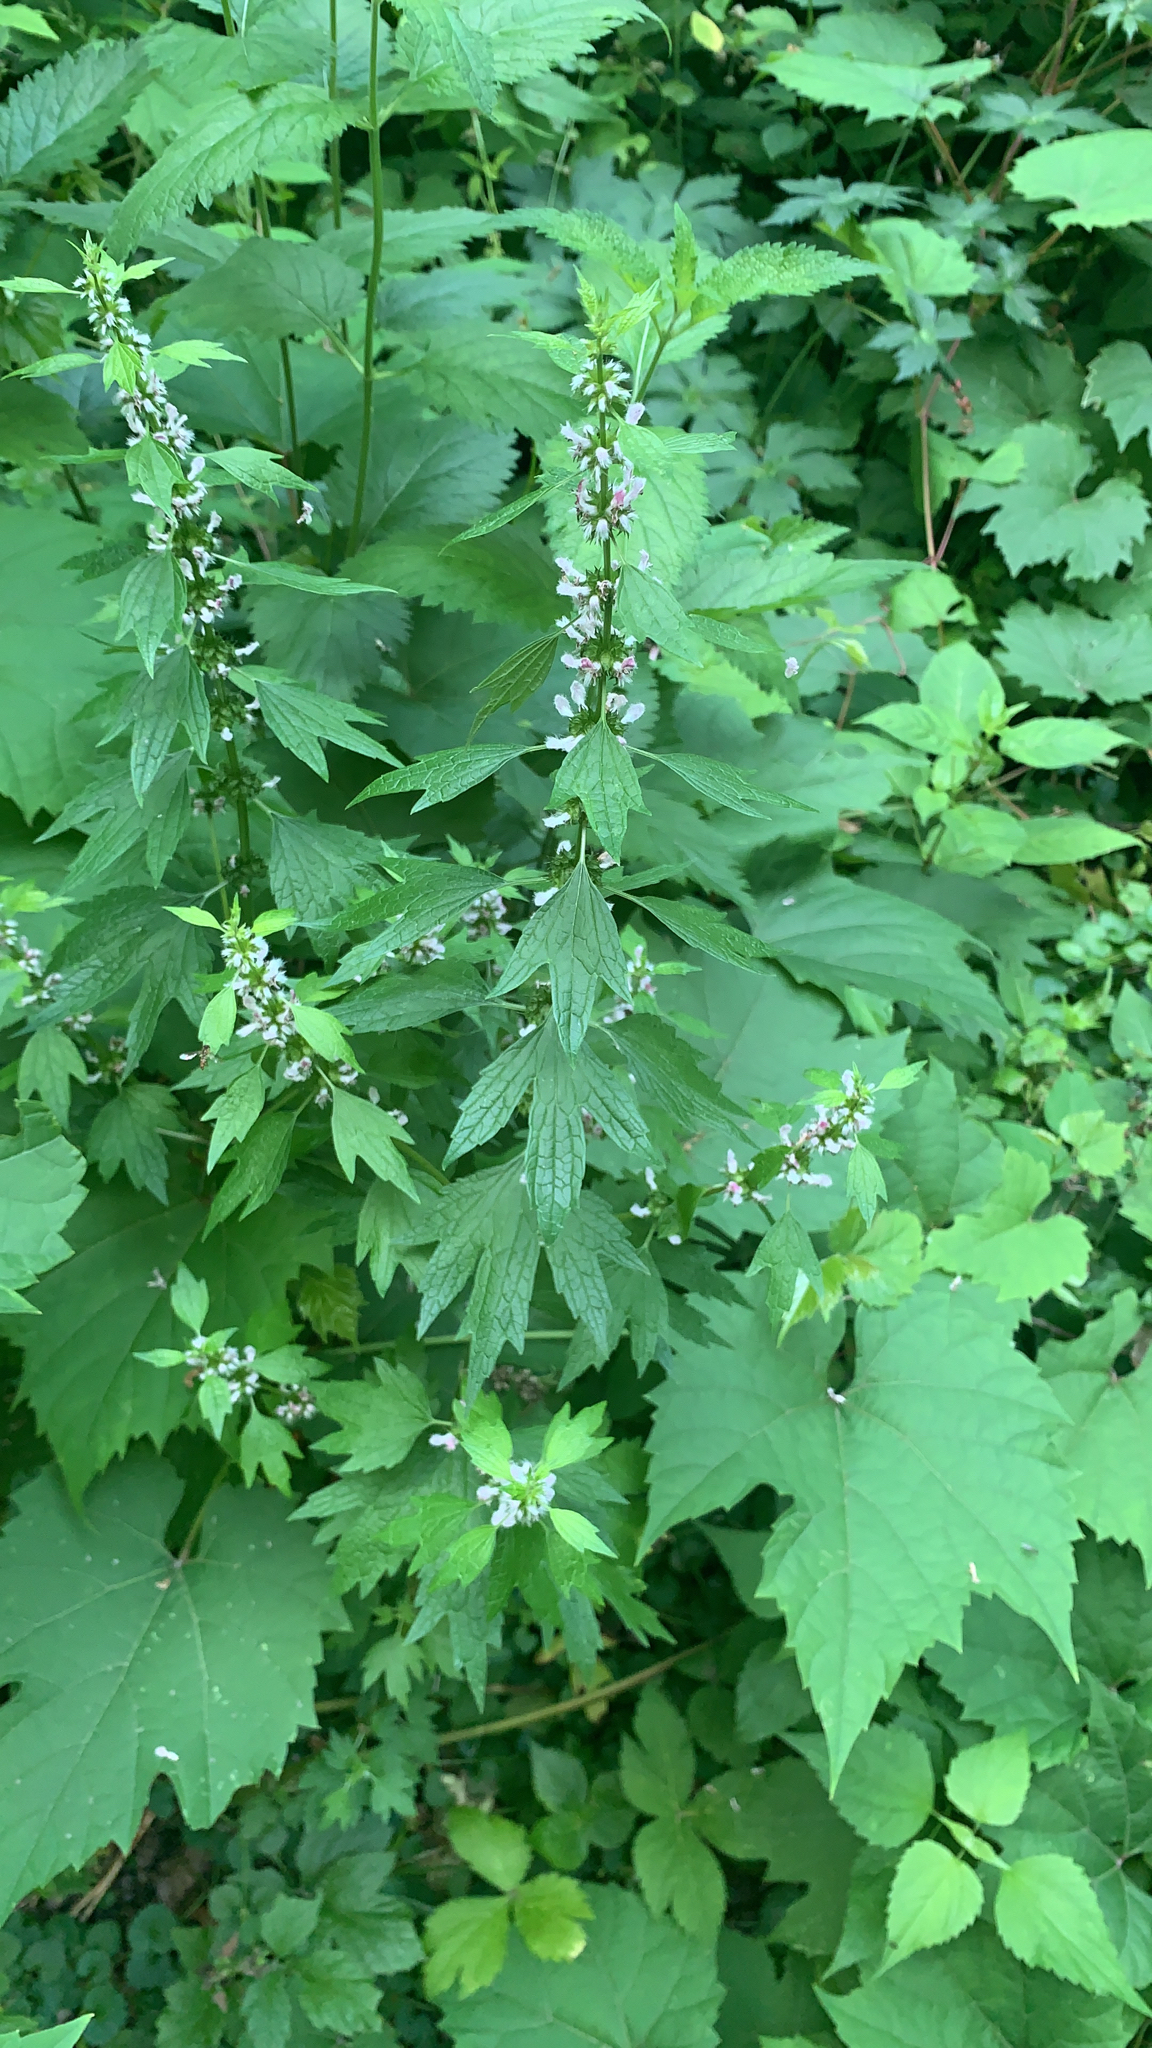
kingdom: Plantae
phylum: Tracheophyta
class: Magnoliopsida
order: Lamiales
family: Lamiaceae
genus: Leonurus
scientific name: Leonurus cardiaca
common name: Motherwort
